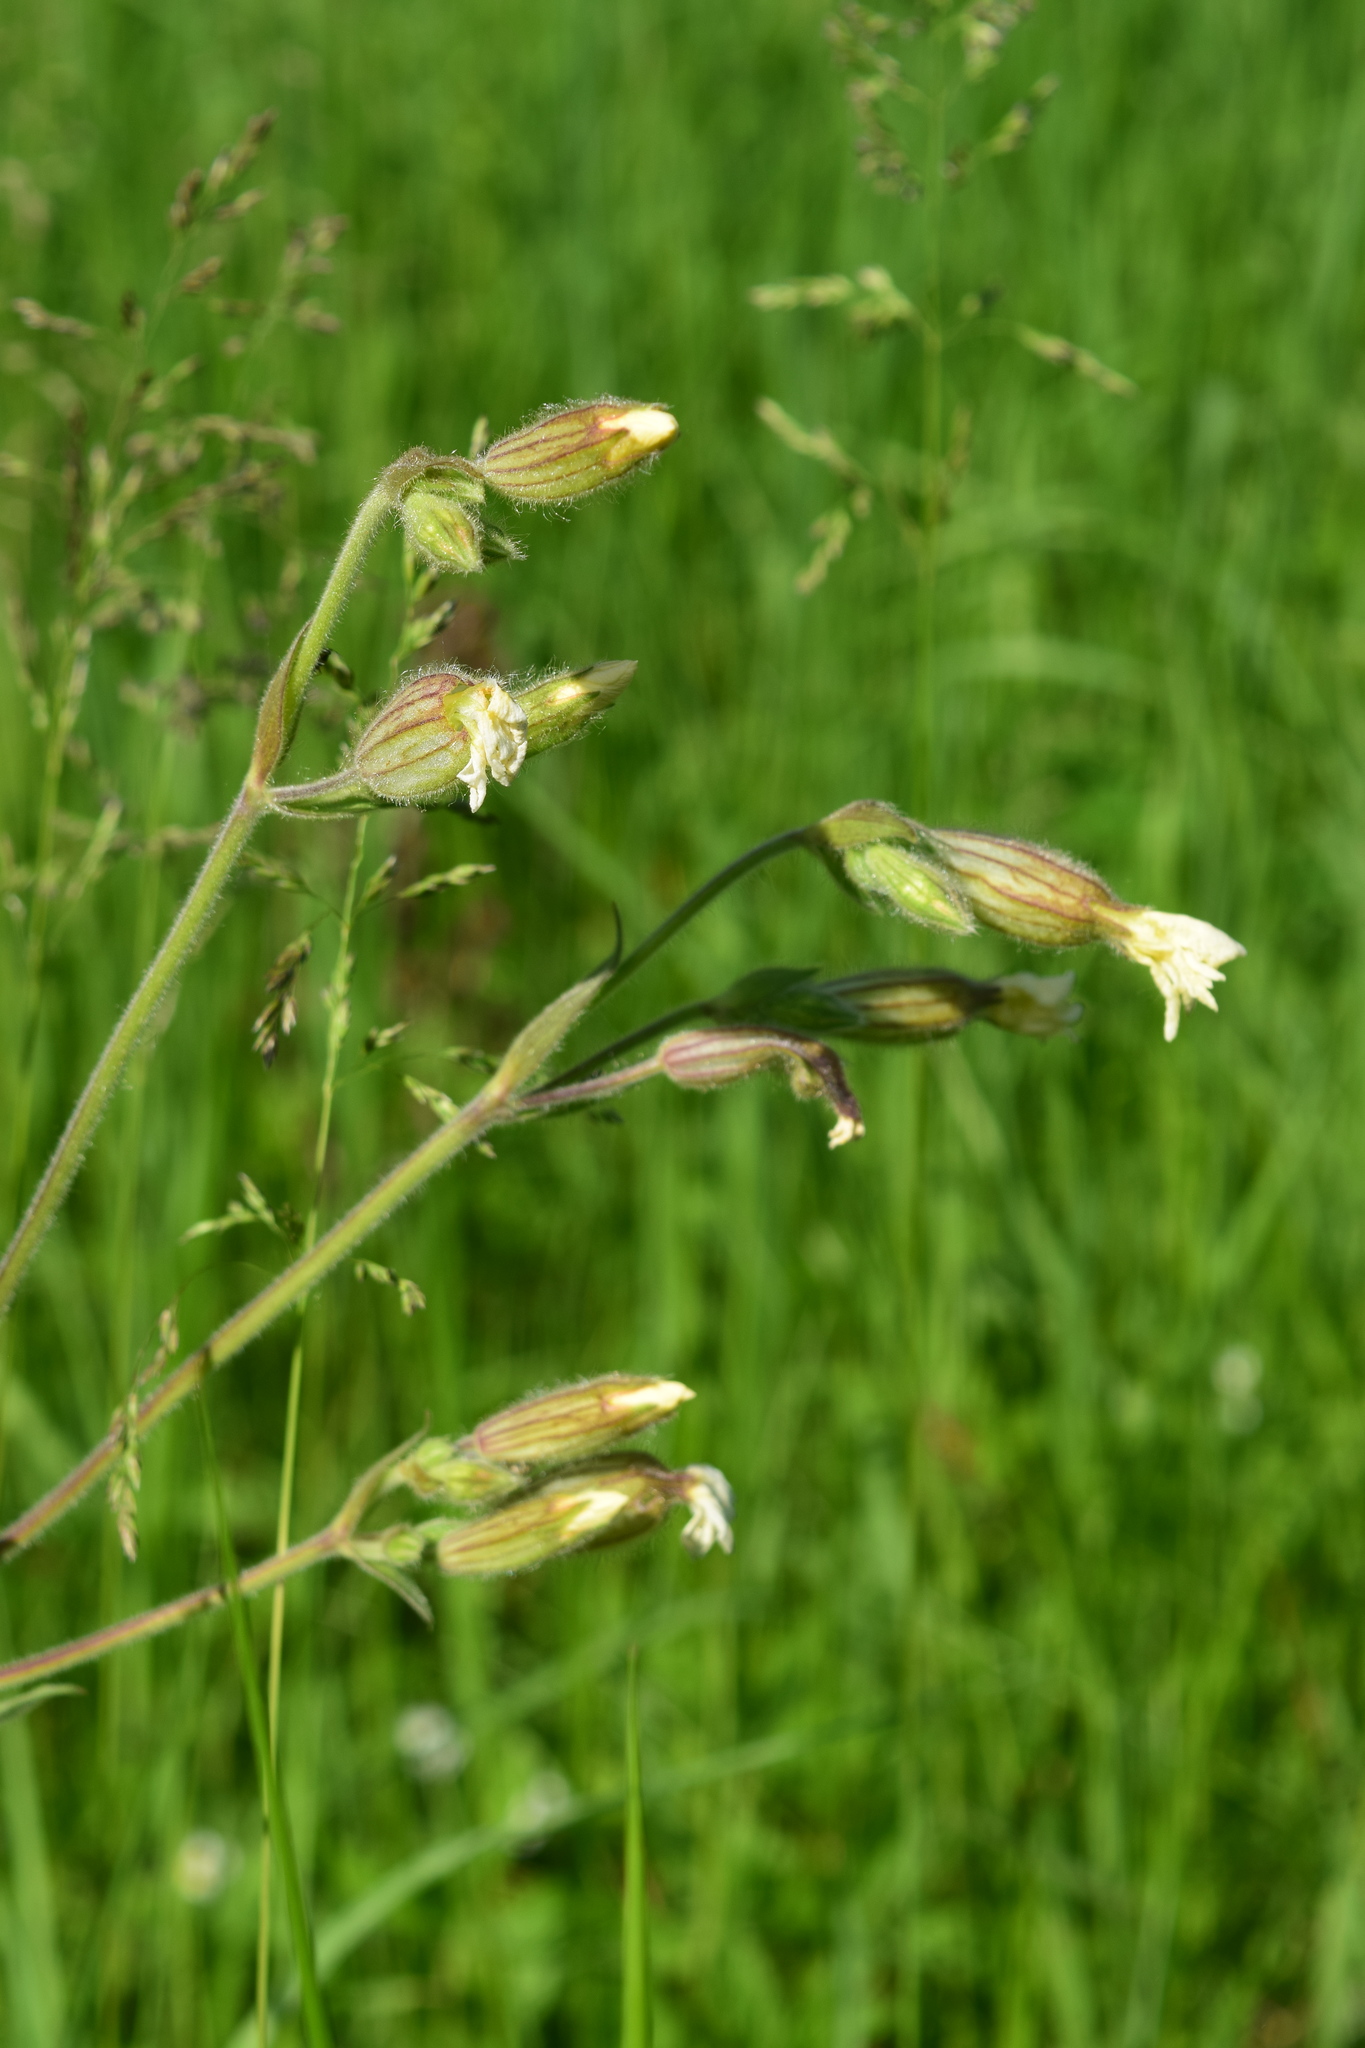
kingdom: Plantae
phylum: Tracheophyta
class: Magnoliopsida
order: Caryophyllales
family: Caryophyllaceae
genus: Silene
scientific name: Silene latifolia
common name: White campion
